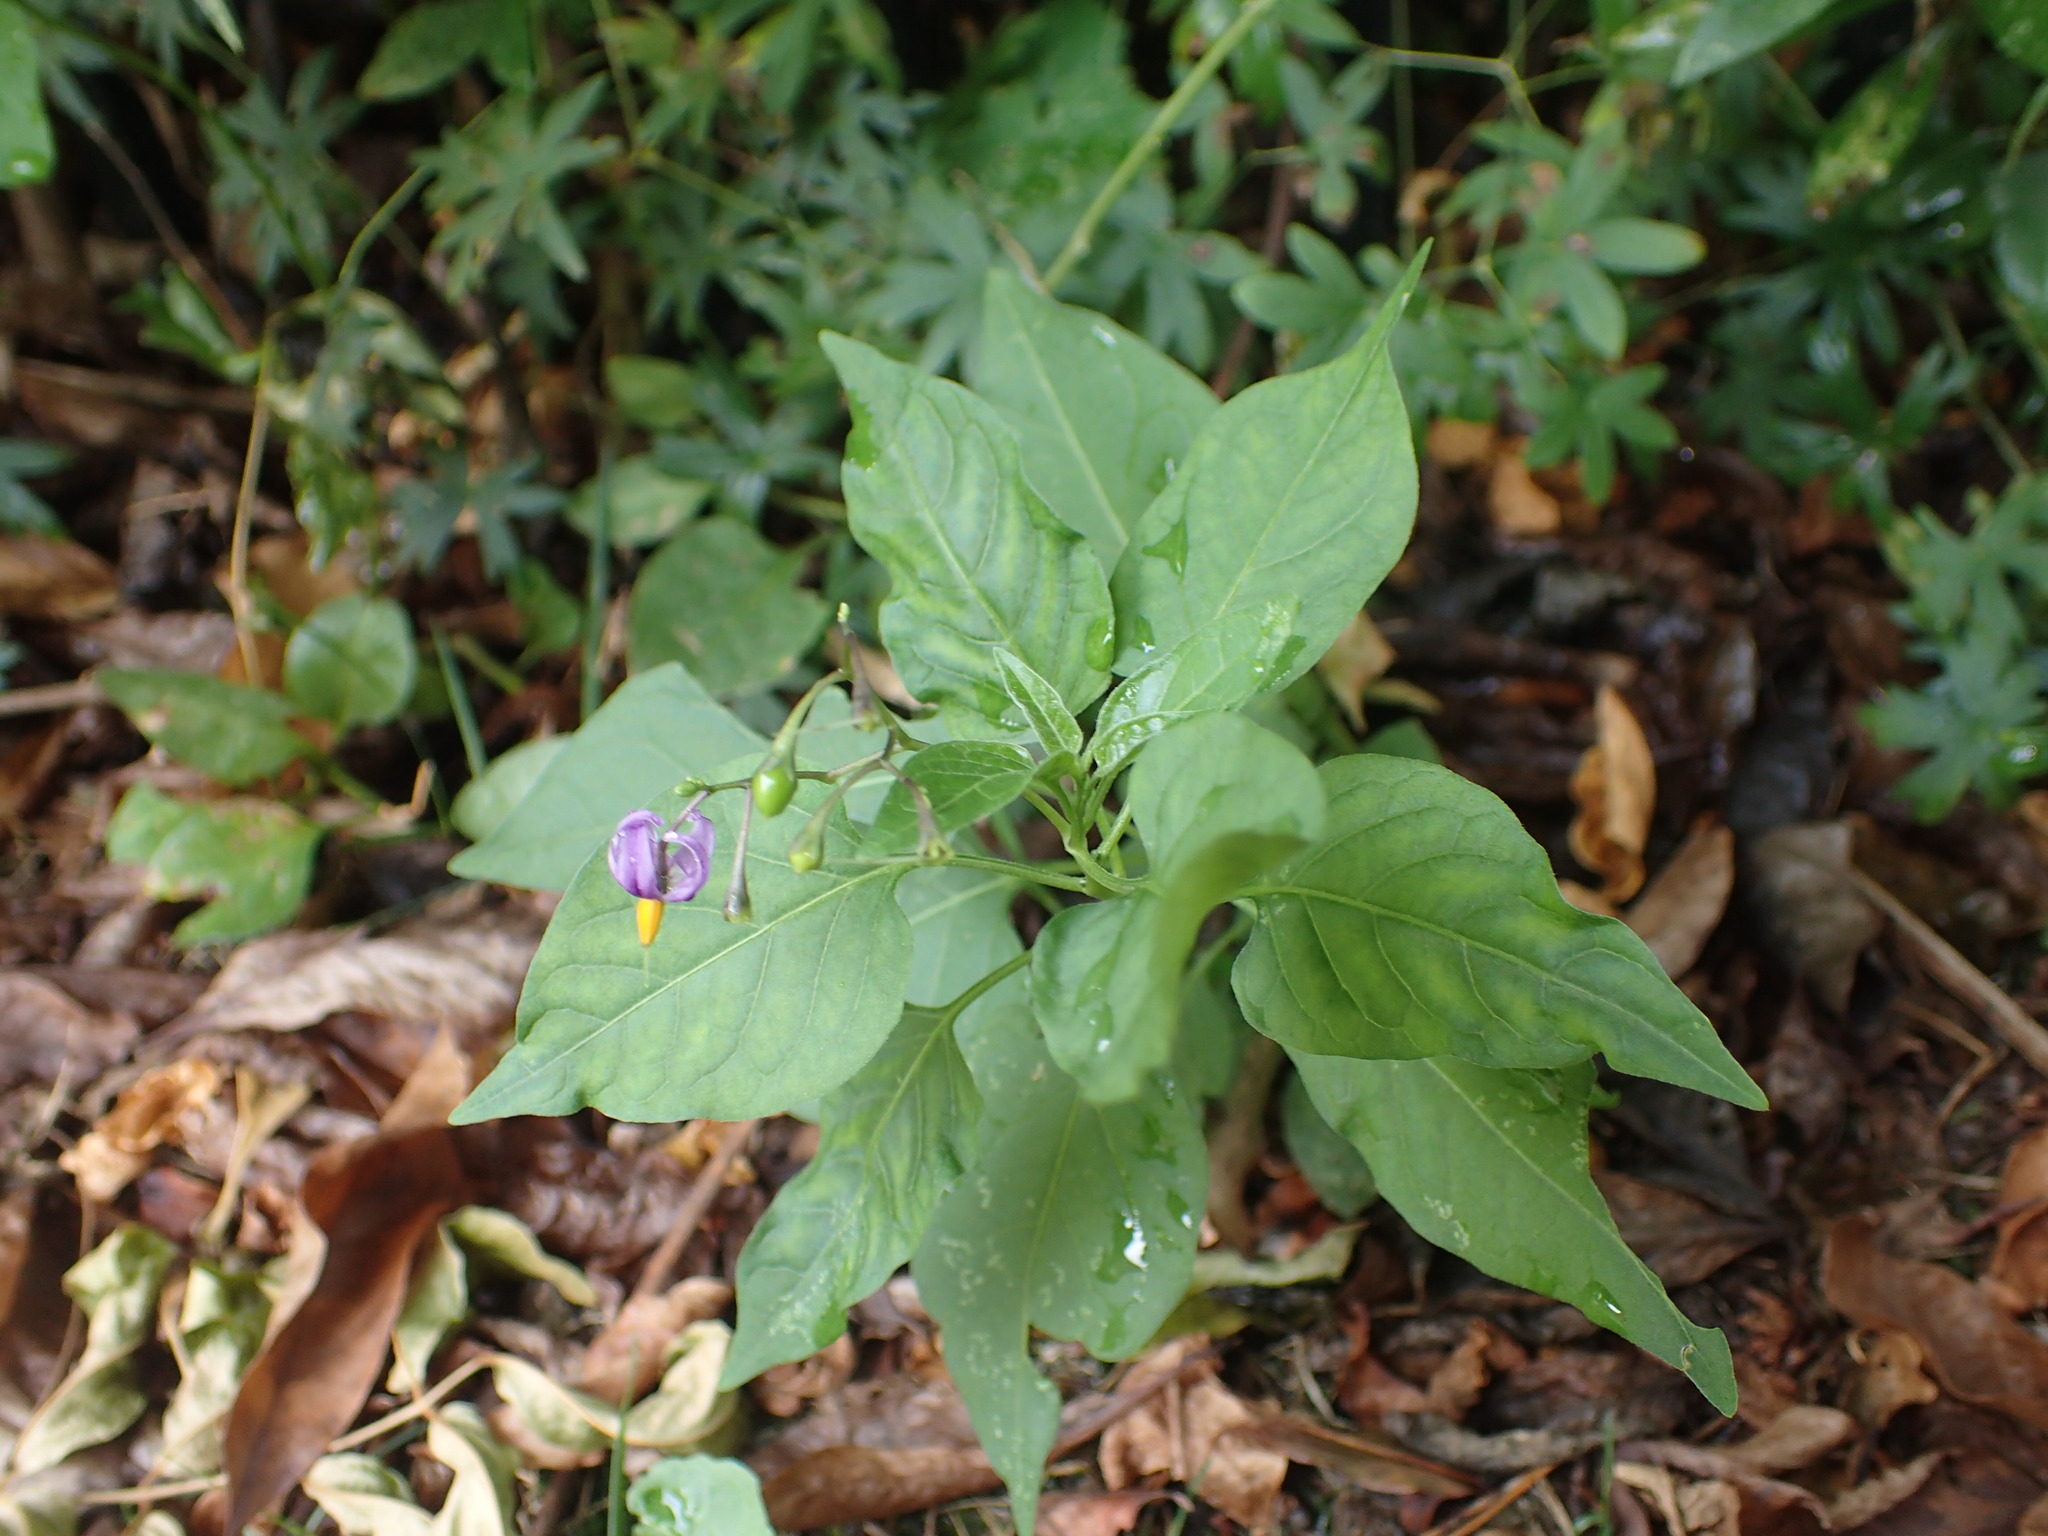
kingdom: Plantae
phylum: Tracheophyta
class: Magnoliopsida
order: Solanales
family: Solanaceae
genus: Solanum
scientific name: Solanum dulcamara
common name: Climbing nightshade
